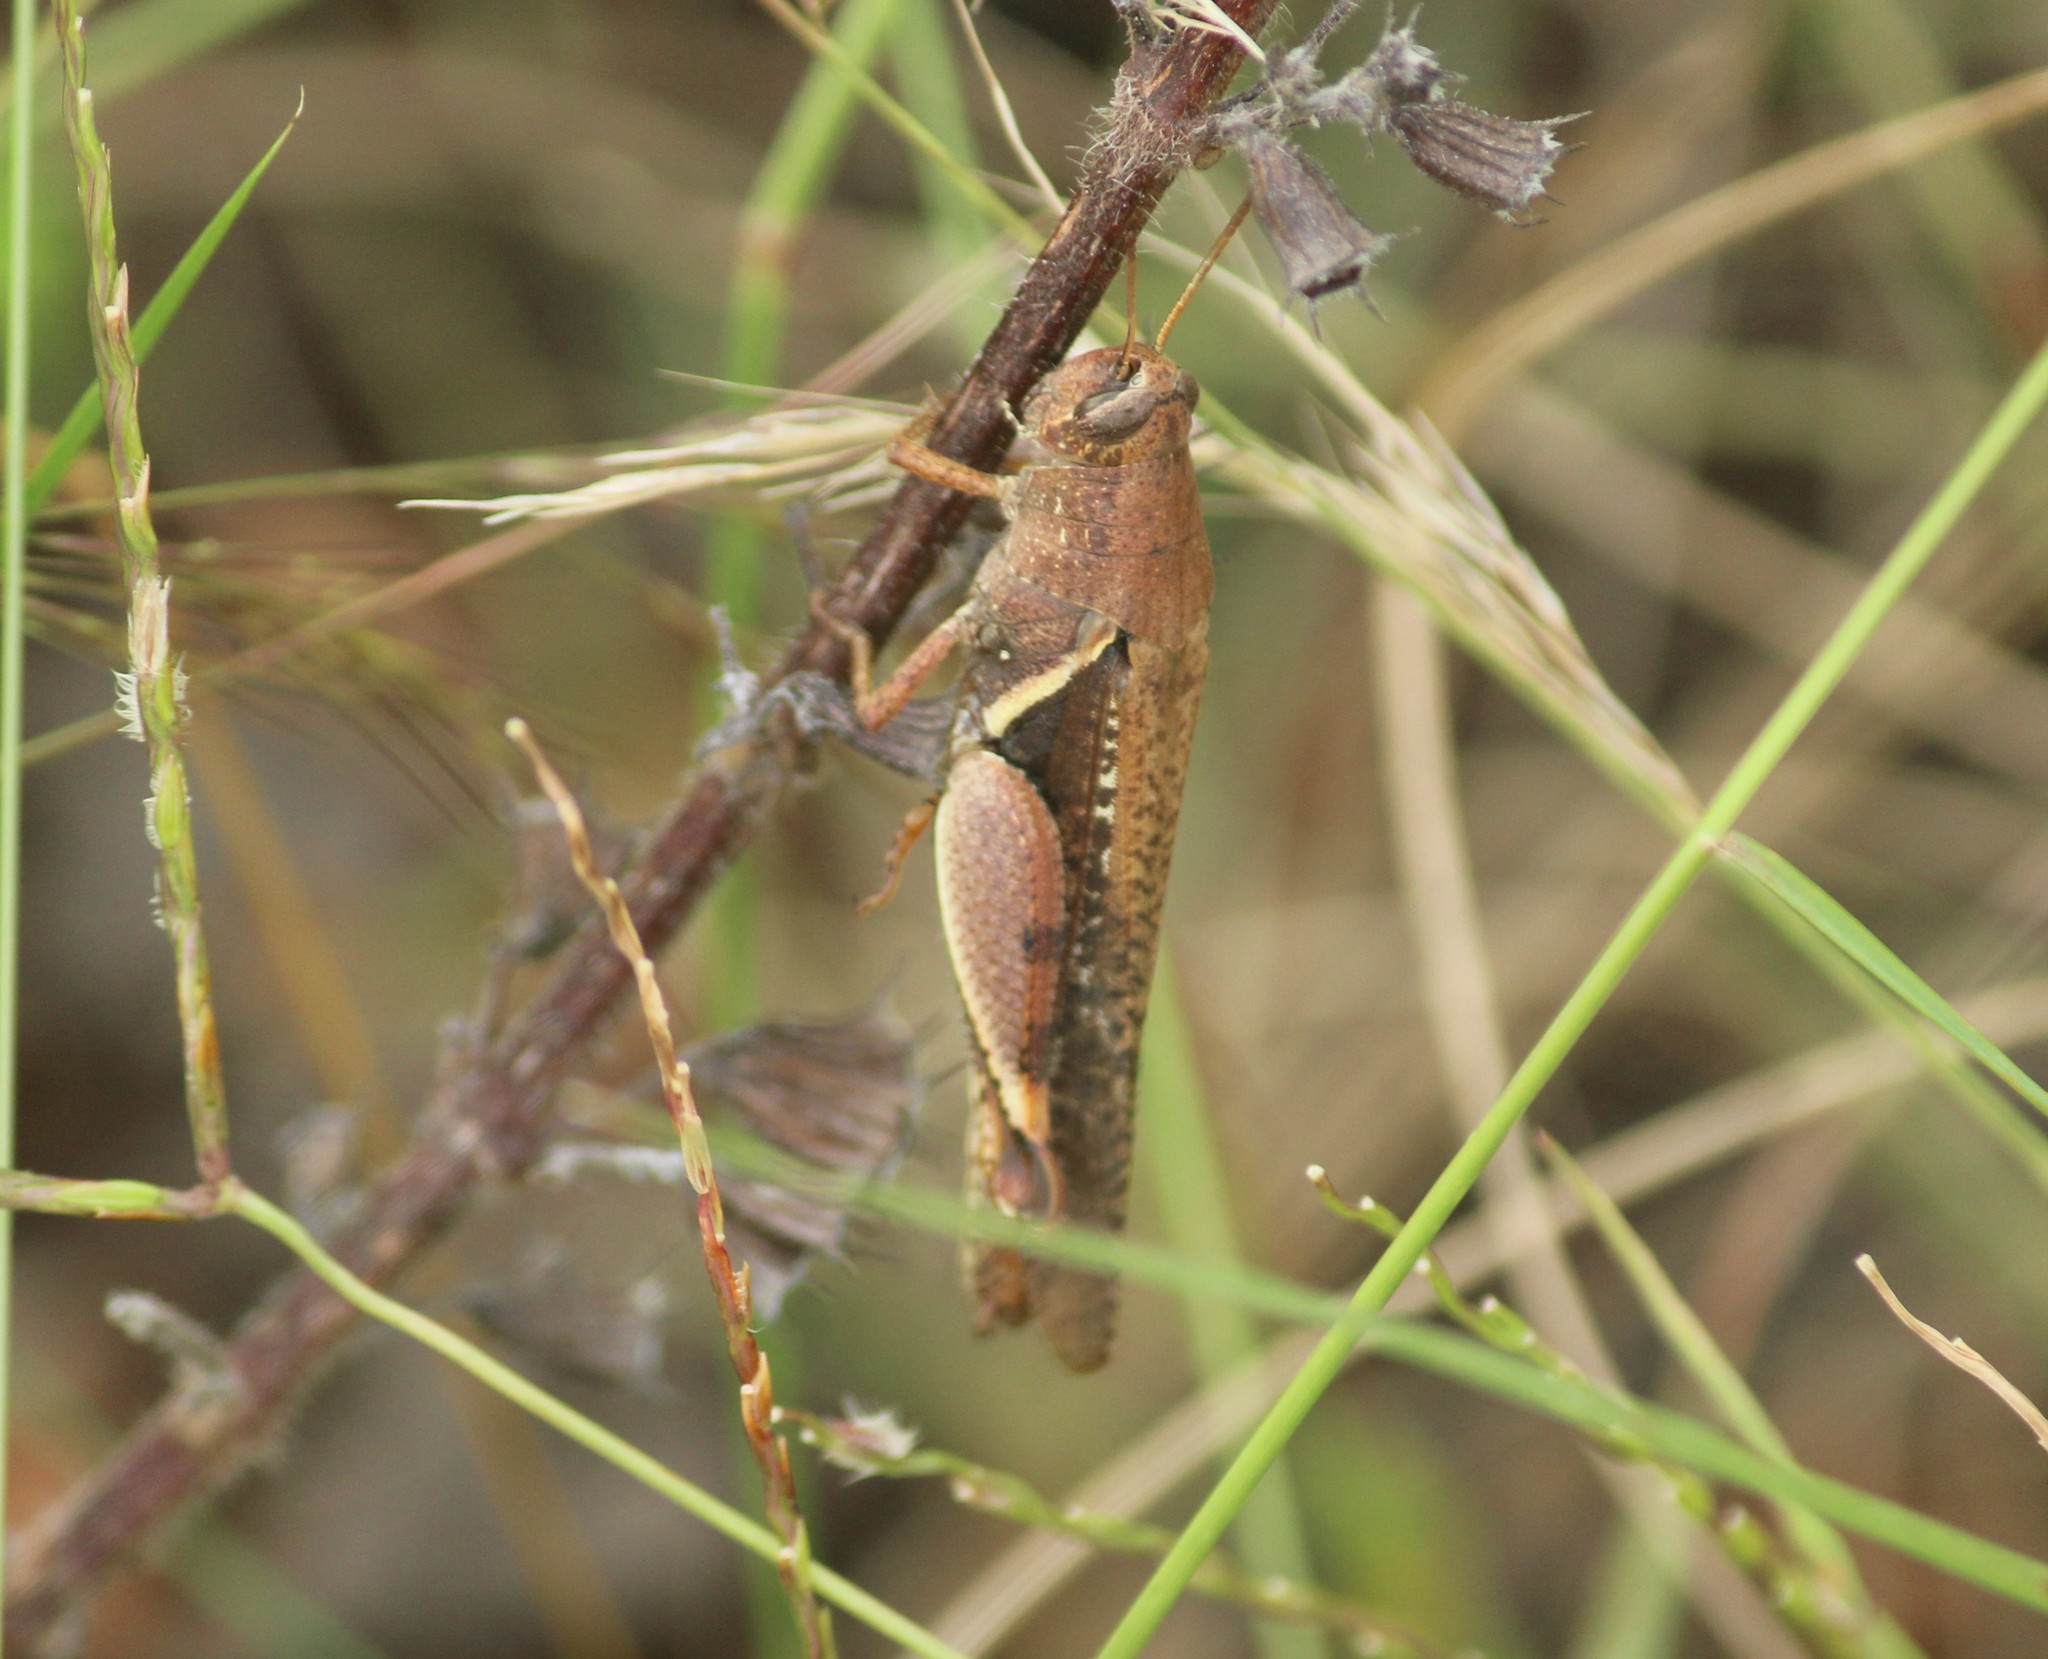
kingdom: Animalia
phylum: Arthropoda
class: Insecta
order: Orthoptera
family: Acrididae
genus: Diabolocatantops
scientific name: Diabolocatantops innotabilis
